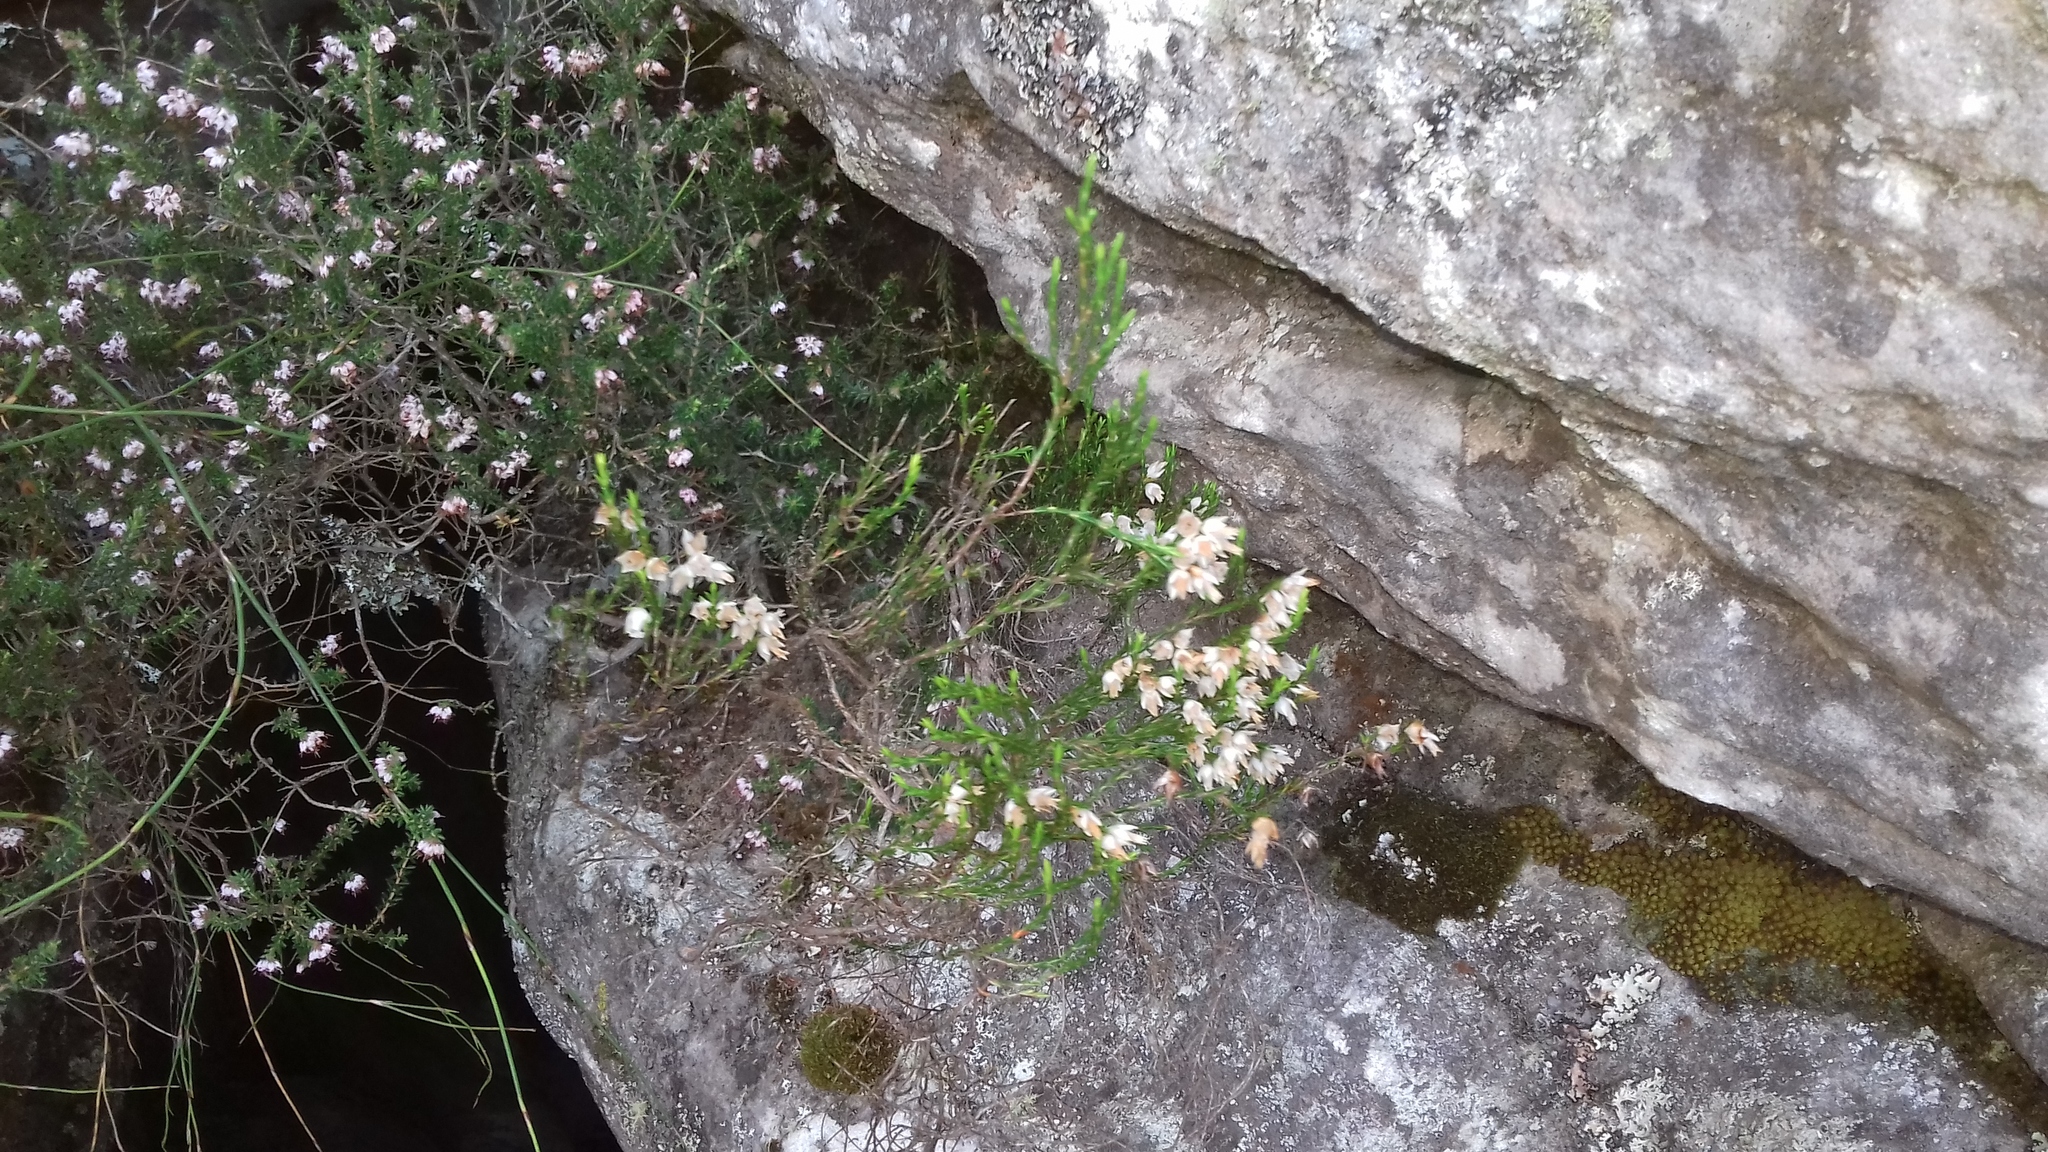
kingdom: Plantae
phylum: Tracheophyta
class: Magnoliopsida
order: Ericales
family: Ericaceae
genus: Erica
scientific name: Erica lutea
